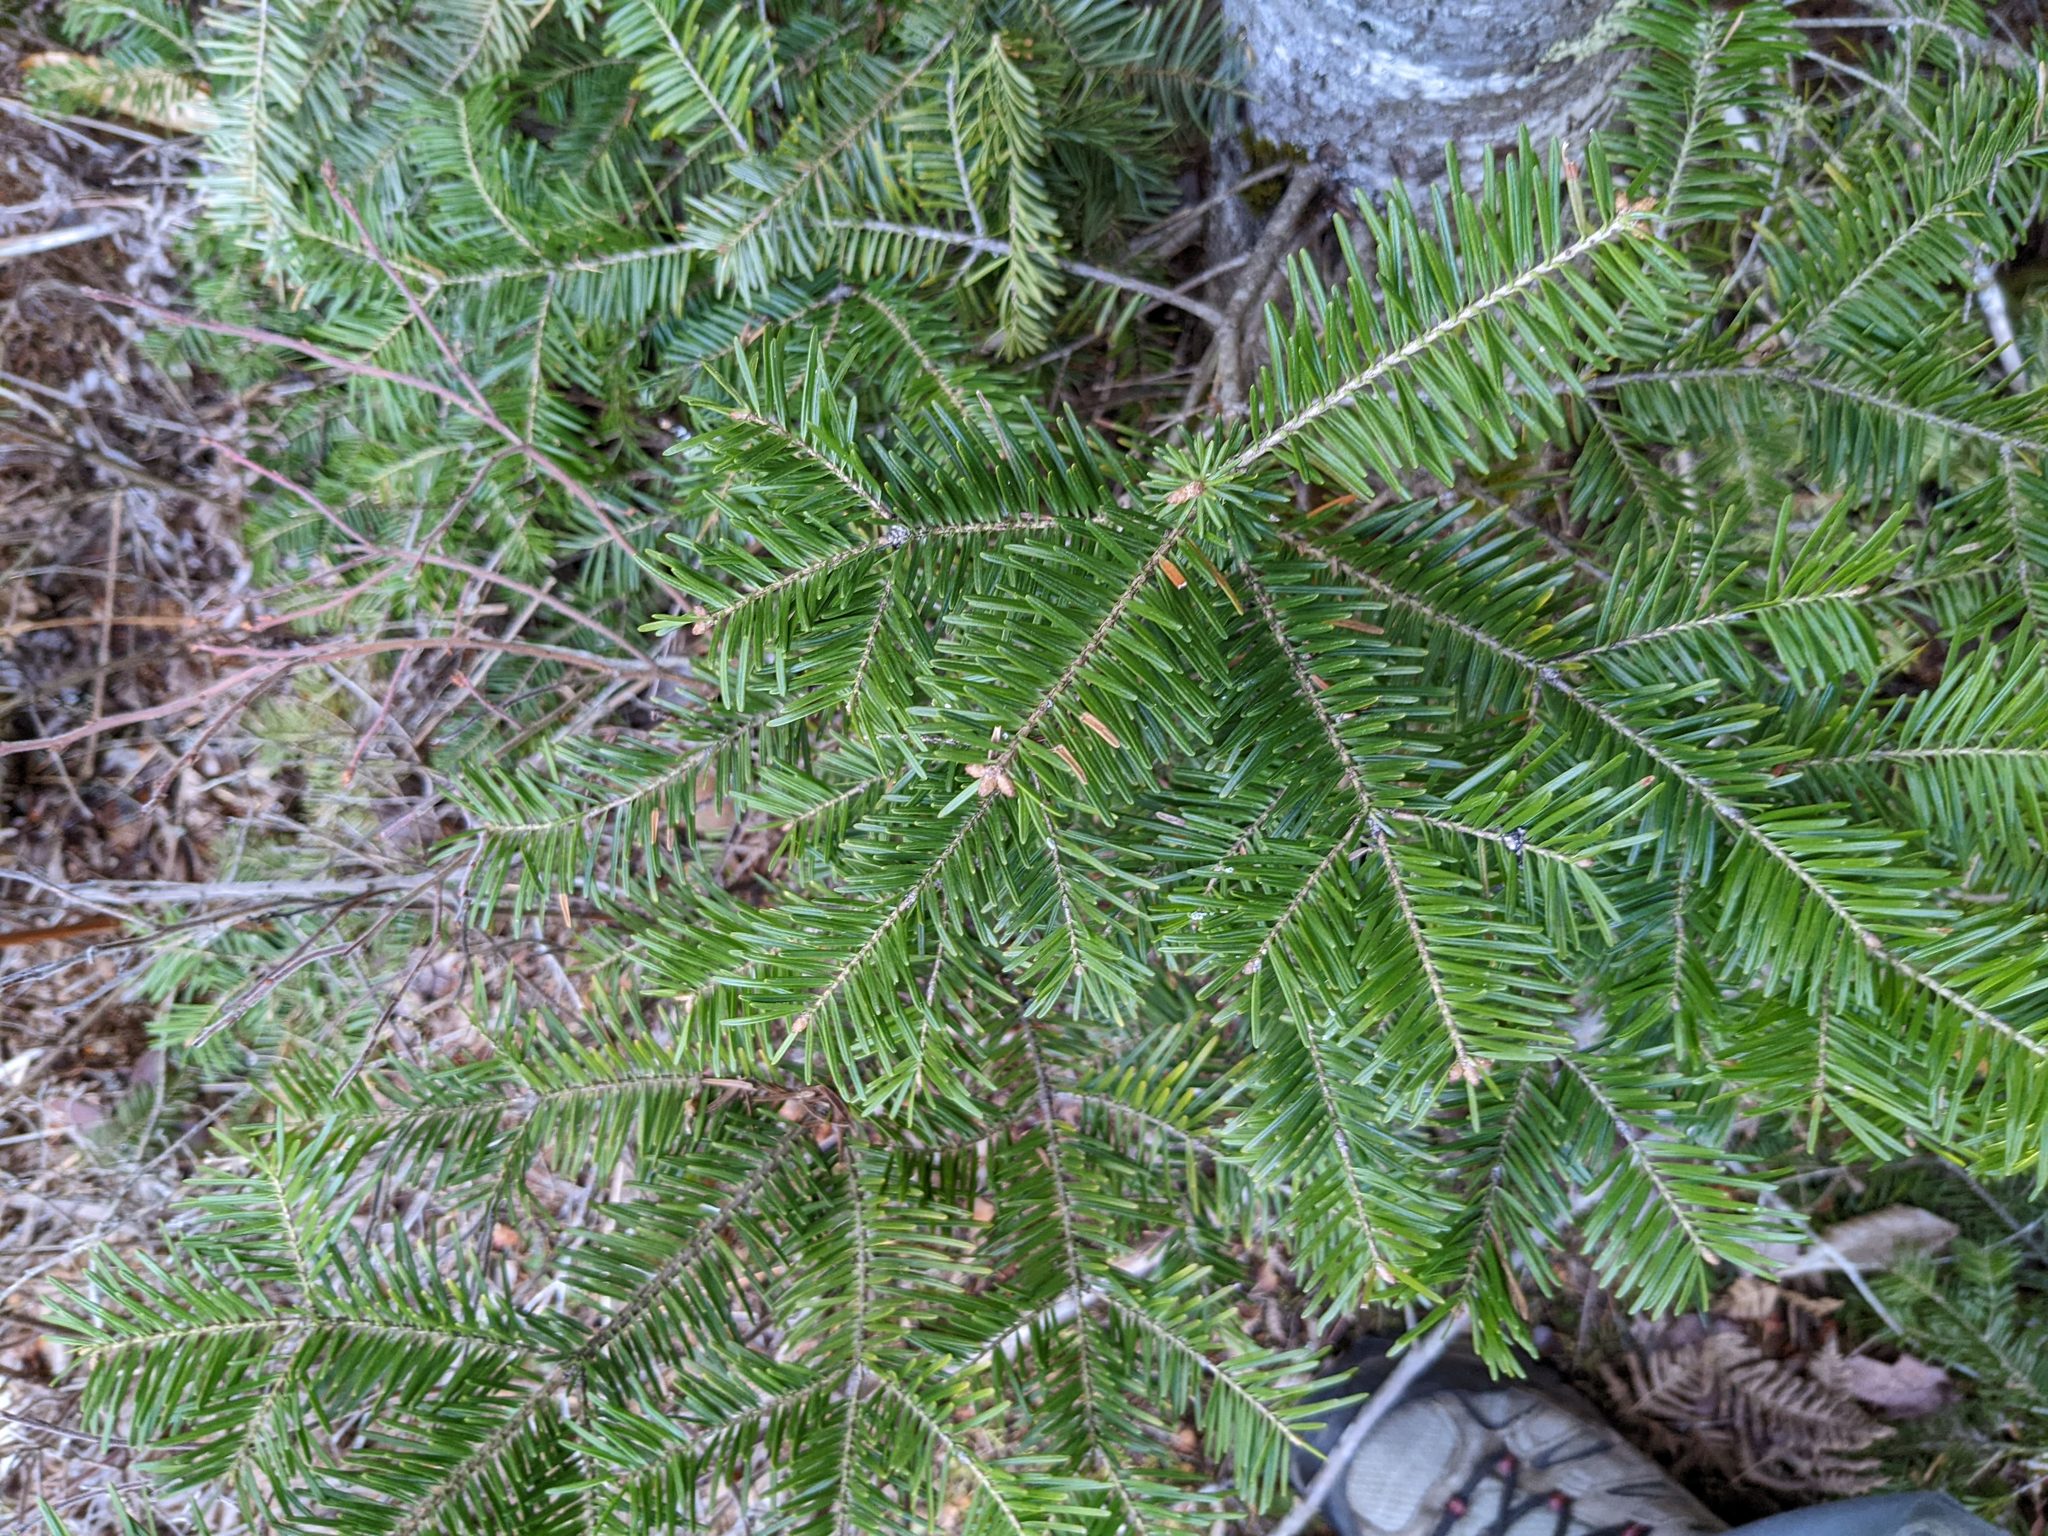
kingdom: Plantae
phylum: Tracheophyta
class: Pinopsida
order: Pinales
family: Pinaceae
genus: Abies
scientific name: Abies balsamea
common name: Balsam fir
